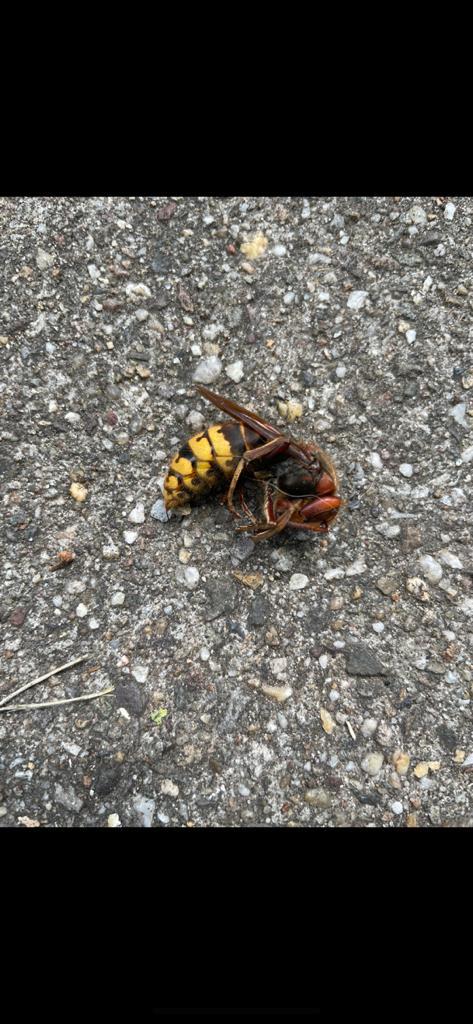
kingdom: Animalia
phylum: Arthropoda
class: Insecta
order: Hymenoptera
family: Vespidae
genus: Vespa
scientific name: Vespa crabro
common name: Hornet
